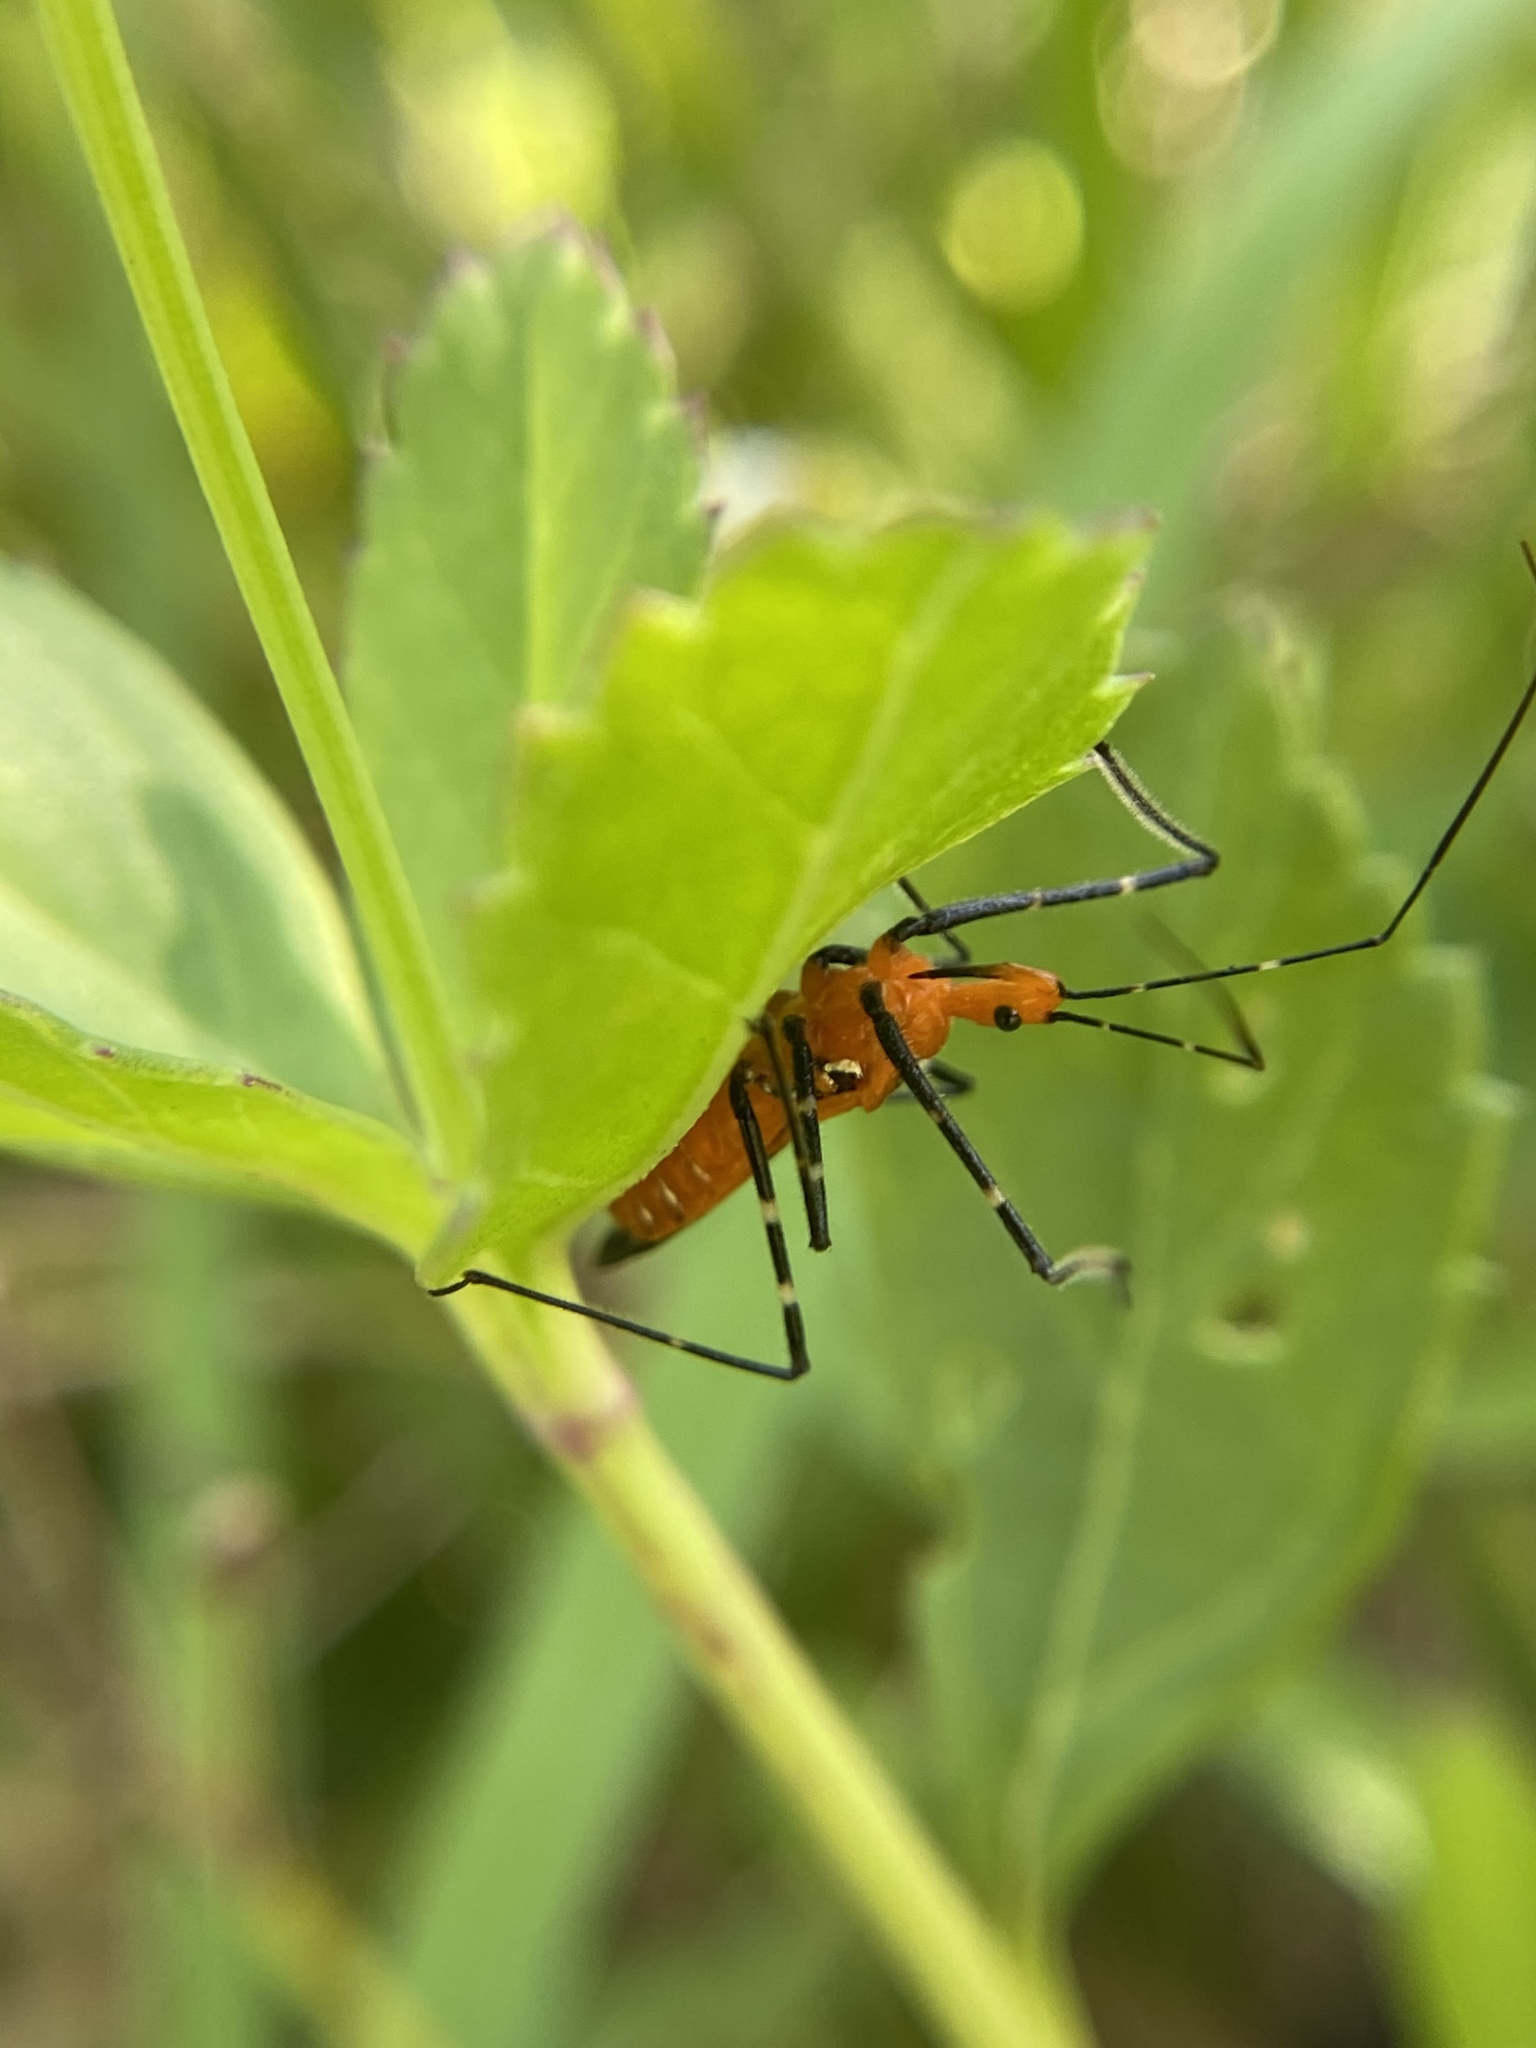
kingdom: Animalia
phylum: Arthropoda
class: Insecta
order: Hemiptera
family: Reduviidae
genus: Zelus
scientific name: Zelus longipes
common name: Milkweed assassin bug
